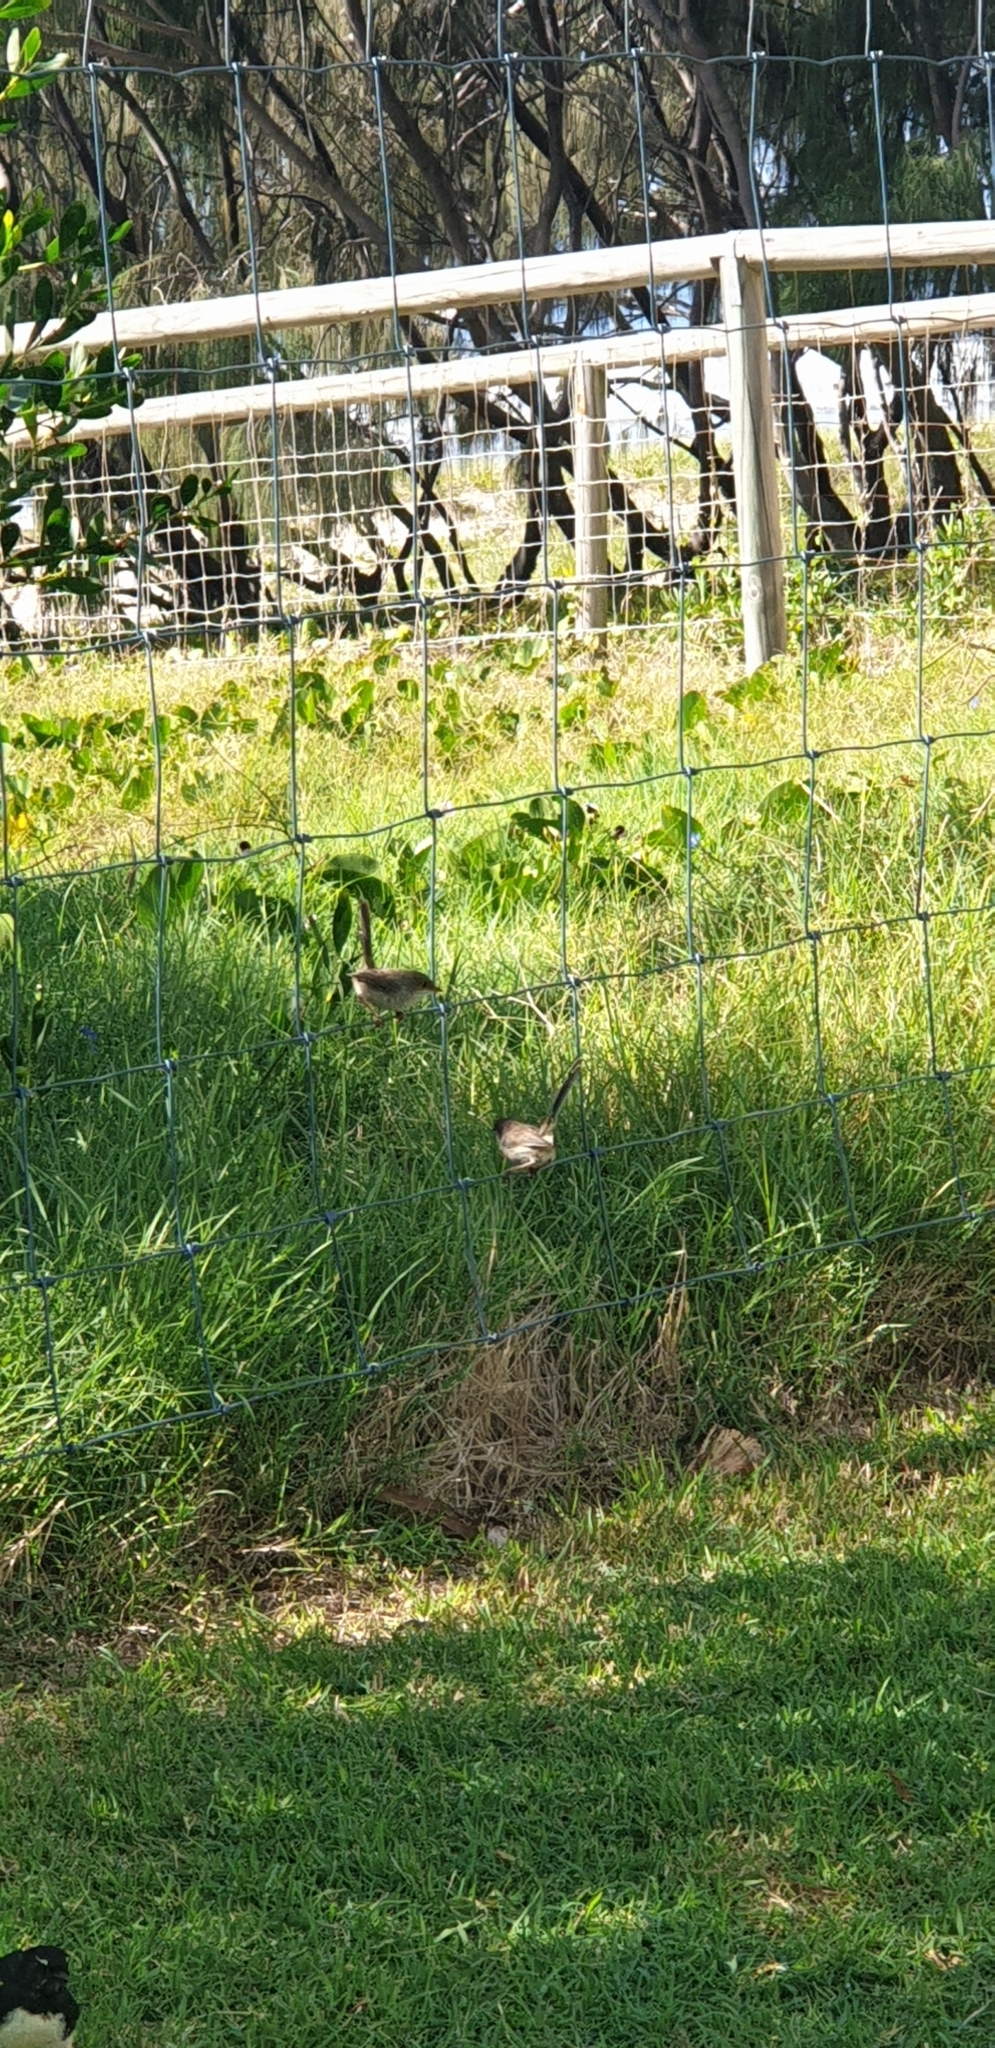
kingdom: Animalia
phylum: Chordata
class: Aves
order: Passeriformes
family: Maluridae
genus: Malurus
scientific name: Malurus cyaneus
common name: Superb fairywren
